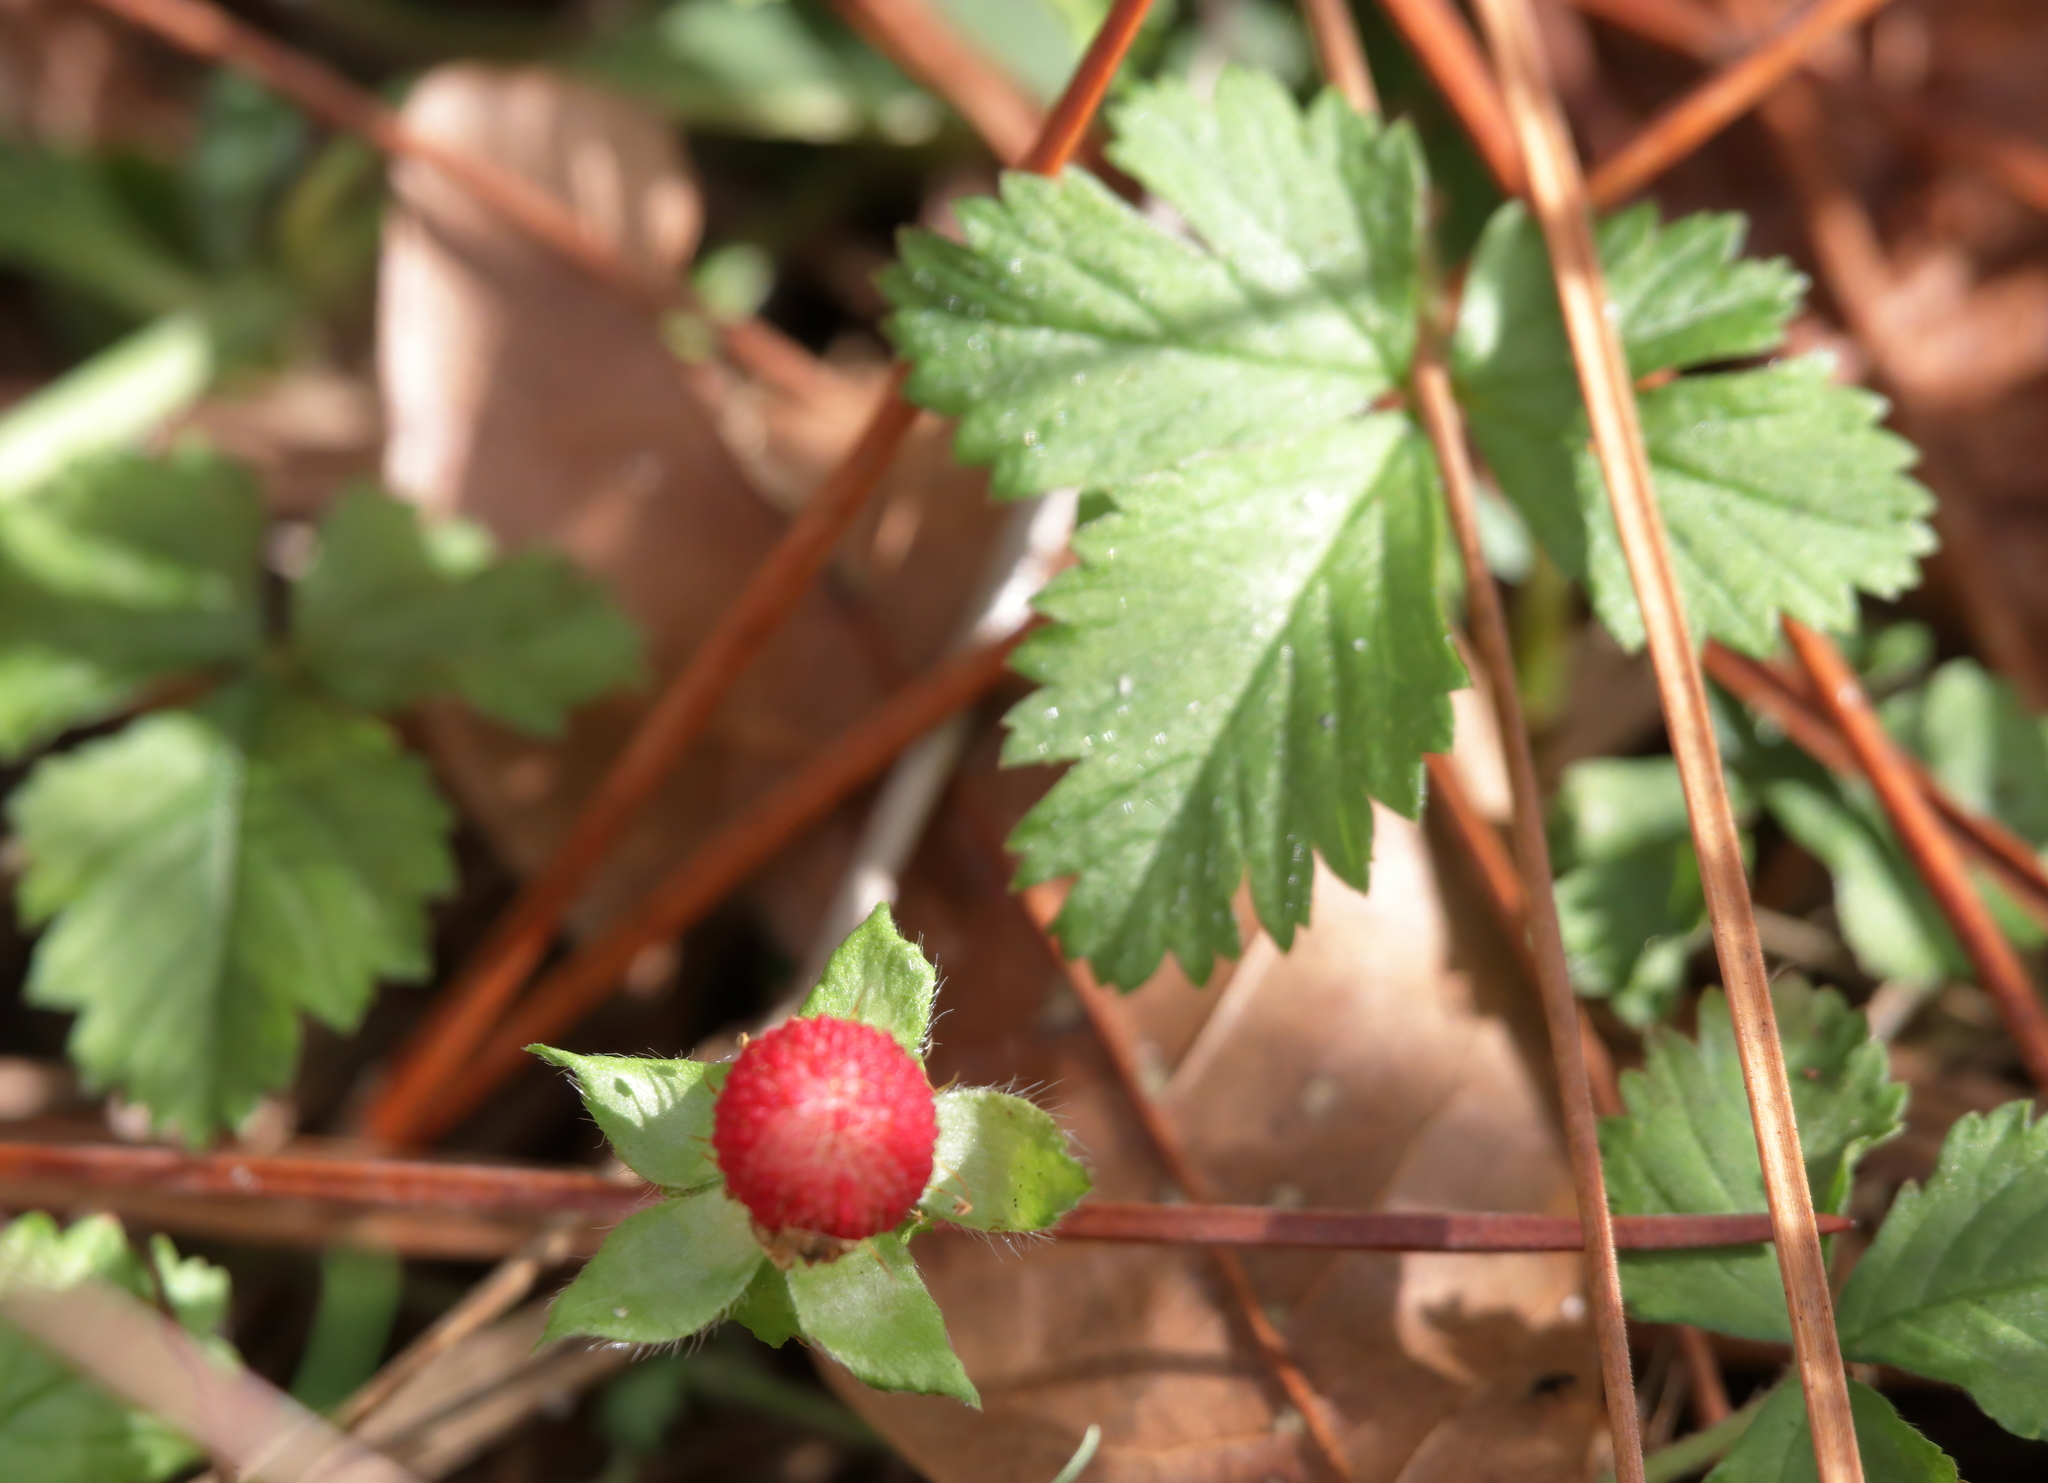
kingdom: Plantae
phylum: Tracheophyta
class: Magnoliopsida
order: Rosales
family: Rosaceae
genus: Potentilla
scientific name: Potentilla indica
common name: Yellow-flowered strawberry
